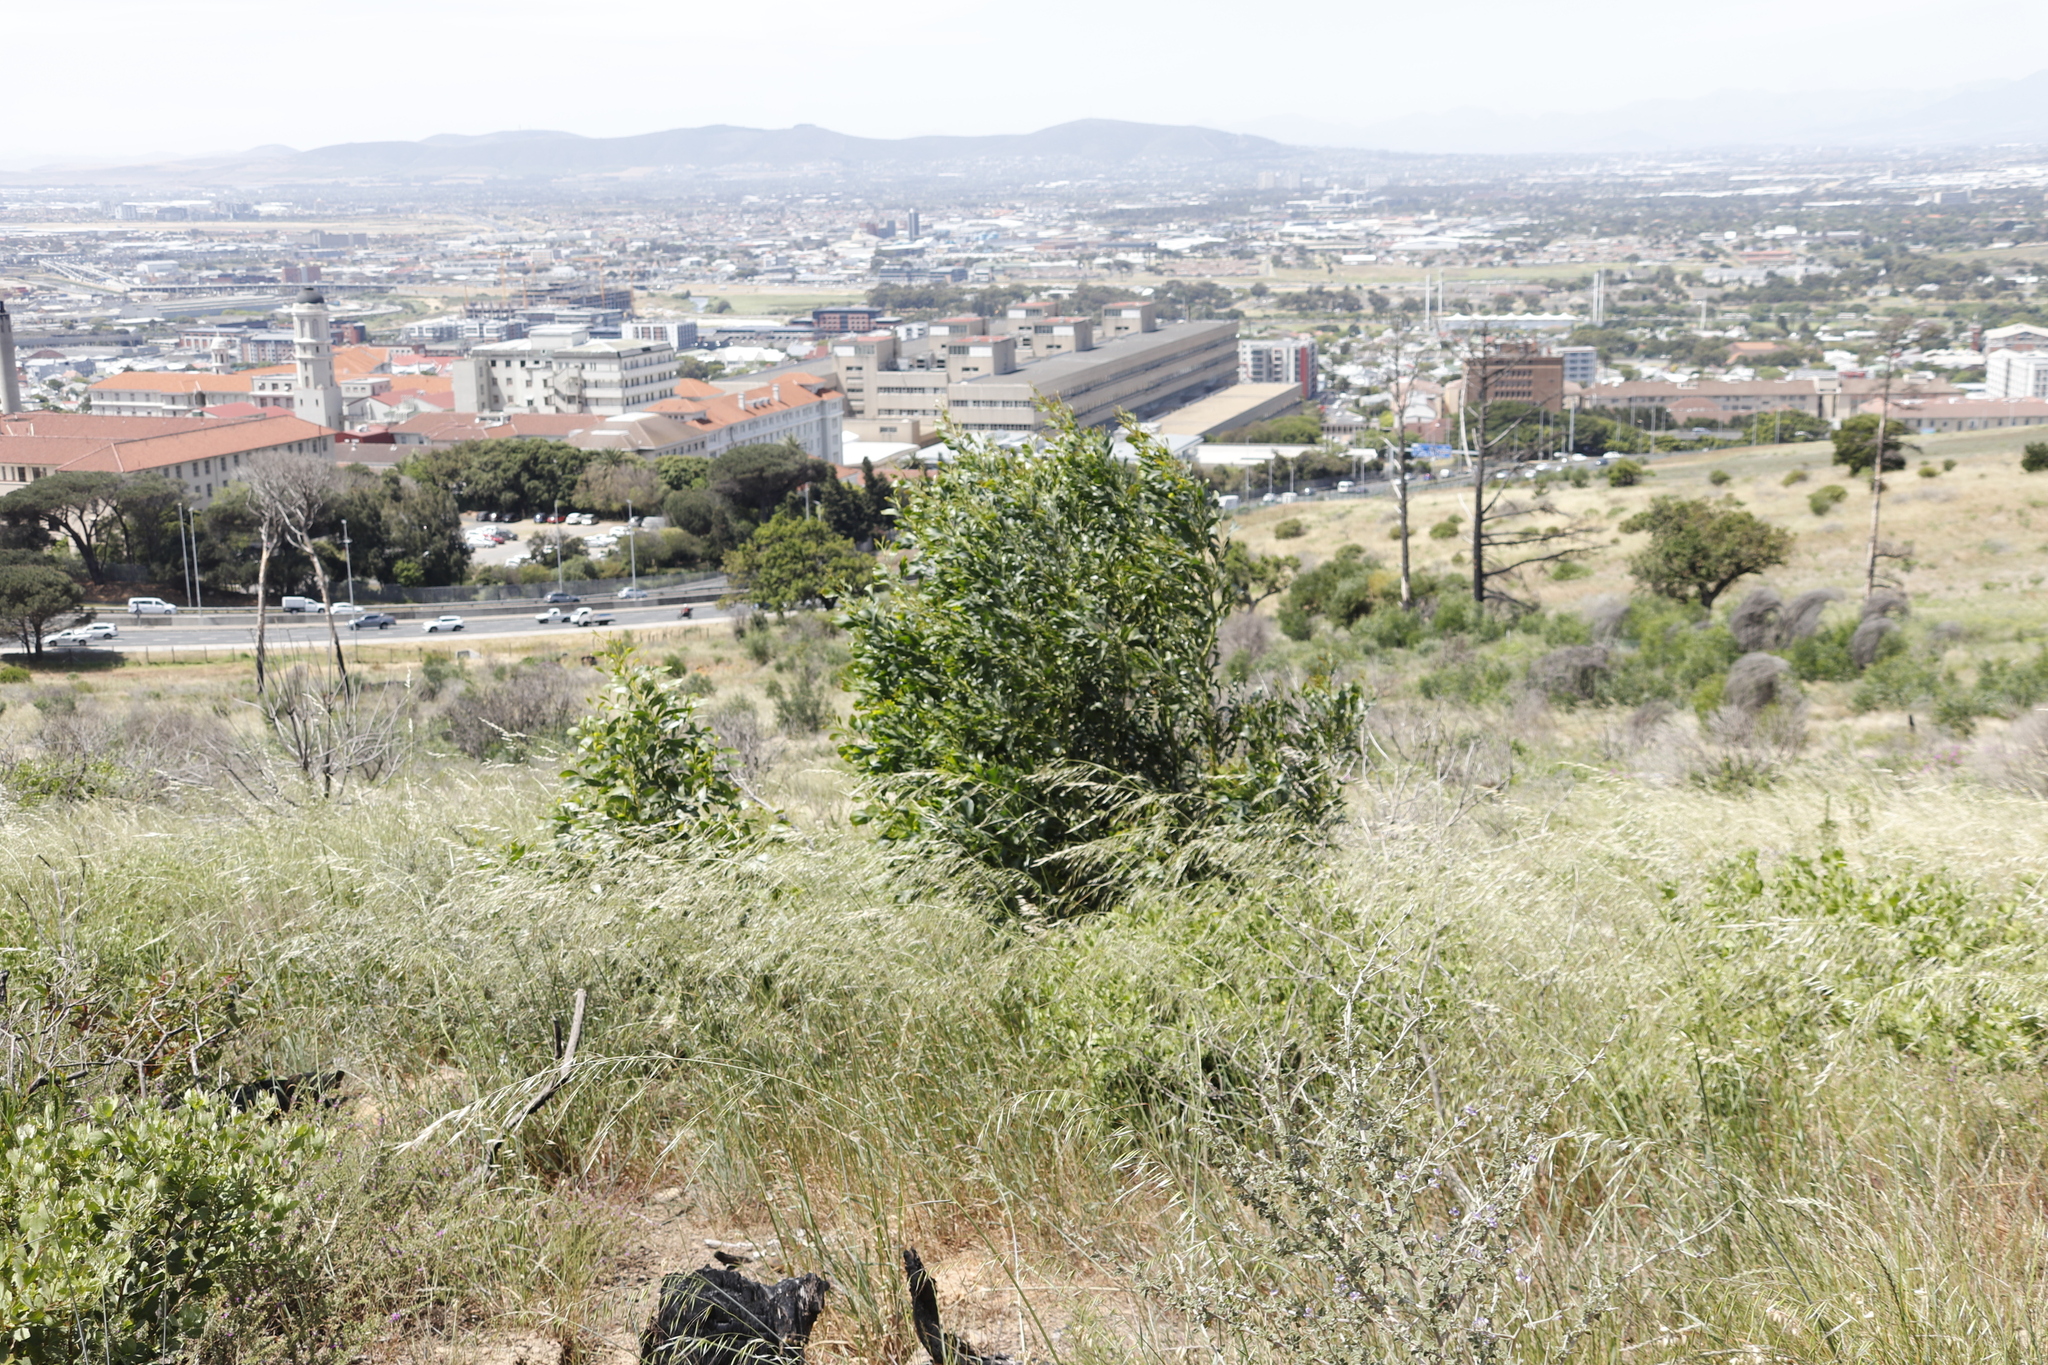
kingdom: Plantae
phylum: Tracheophyta
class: Magnoliopsida
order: Fabales
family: Fabaceae
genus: Acacia
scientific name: Acacia saligna
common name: Orange wattle
